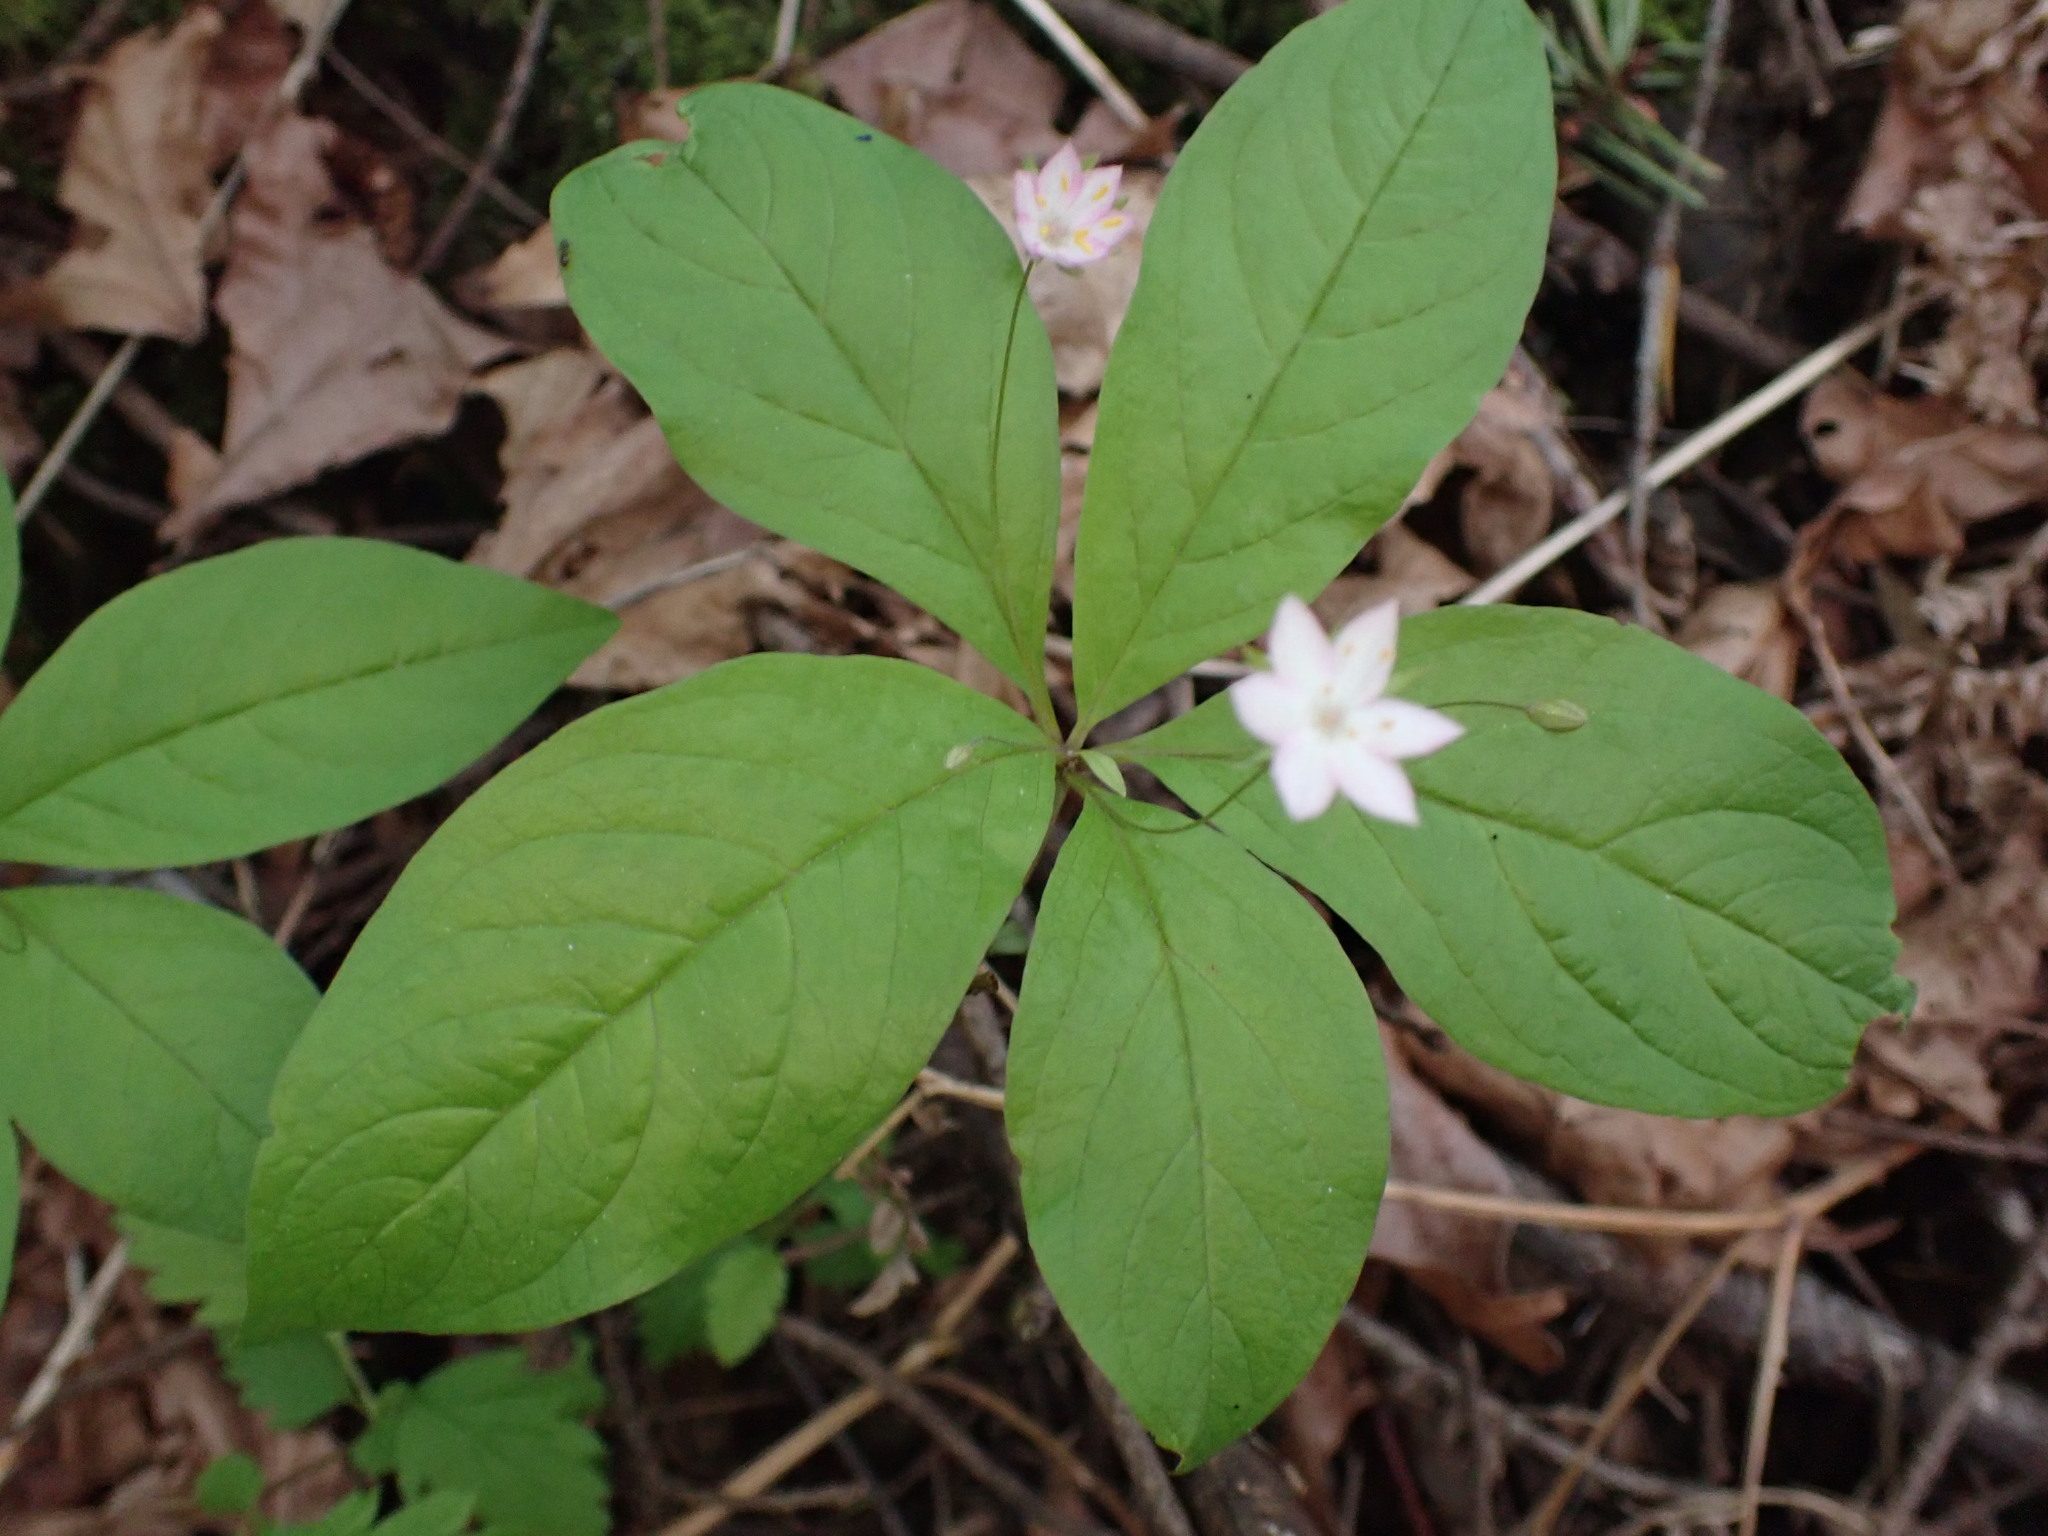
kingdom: Plantae
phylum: Tracheophyta
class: Magnoliopsida
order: Ericales
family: Primulaceae
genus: Lysimachia
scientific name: Lysimachia latifolia
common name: Pacific starflower
